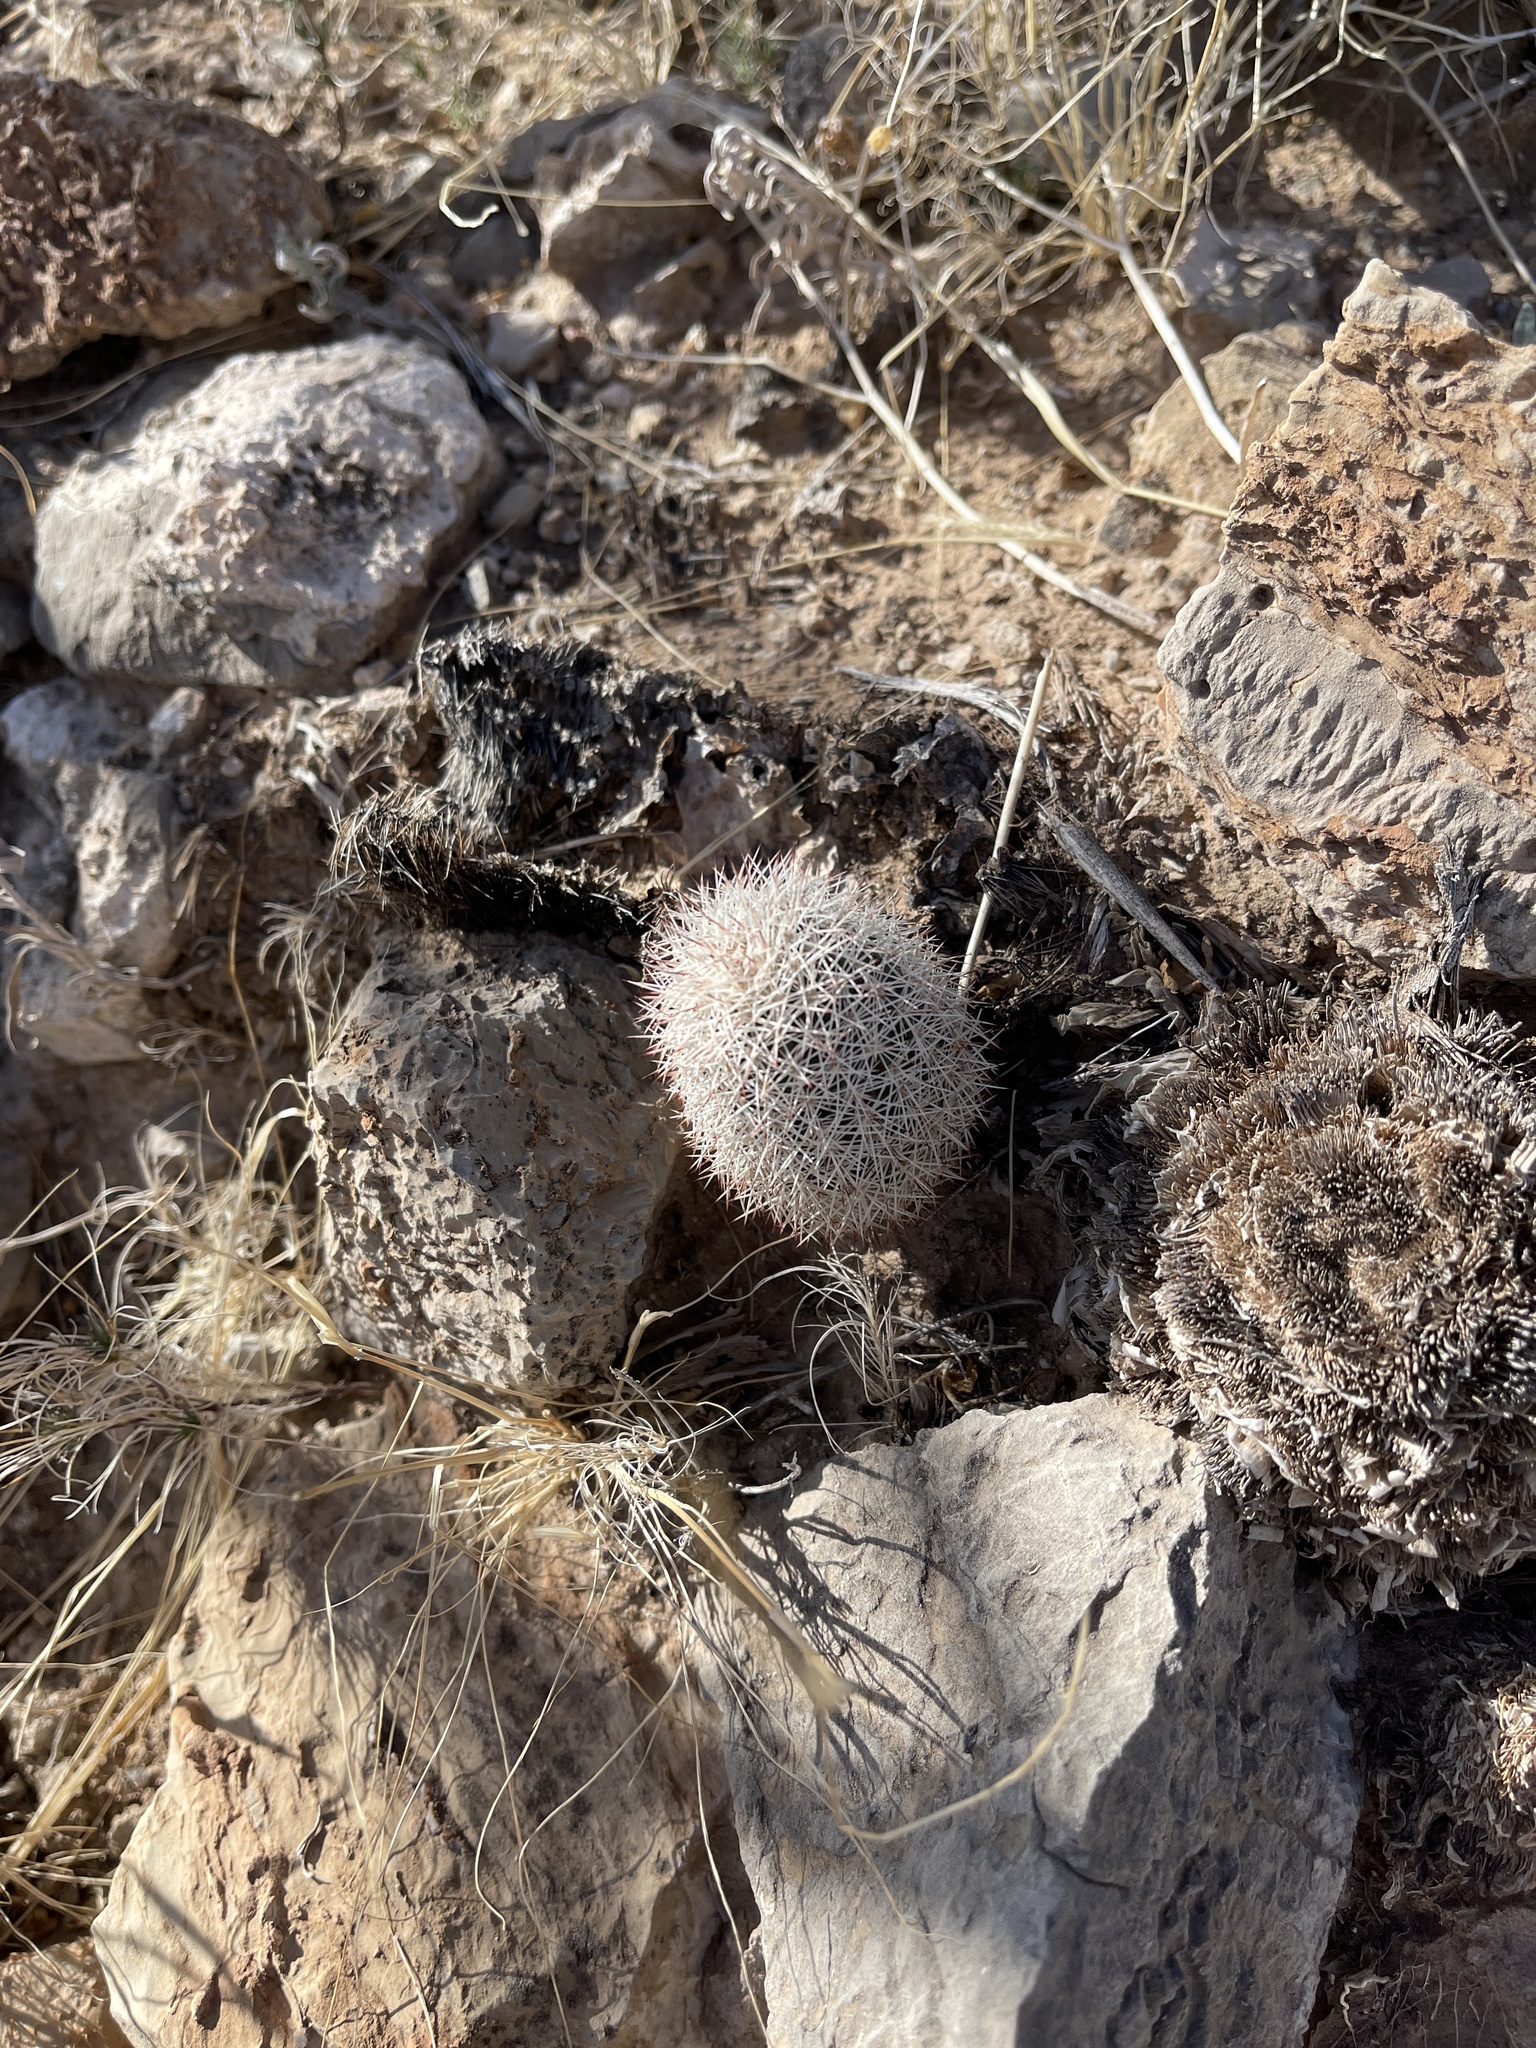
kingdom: Plantae
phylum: Tracheophyta
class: Magnoliopsida
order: Caryophyllales
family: Cactaceae
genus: Echinocereus
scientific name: Echinocereus dasyacanthus
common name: Spiny hedgehog cactus
